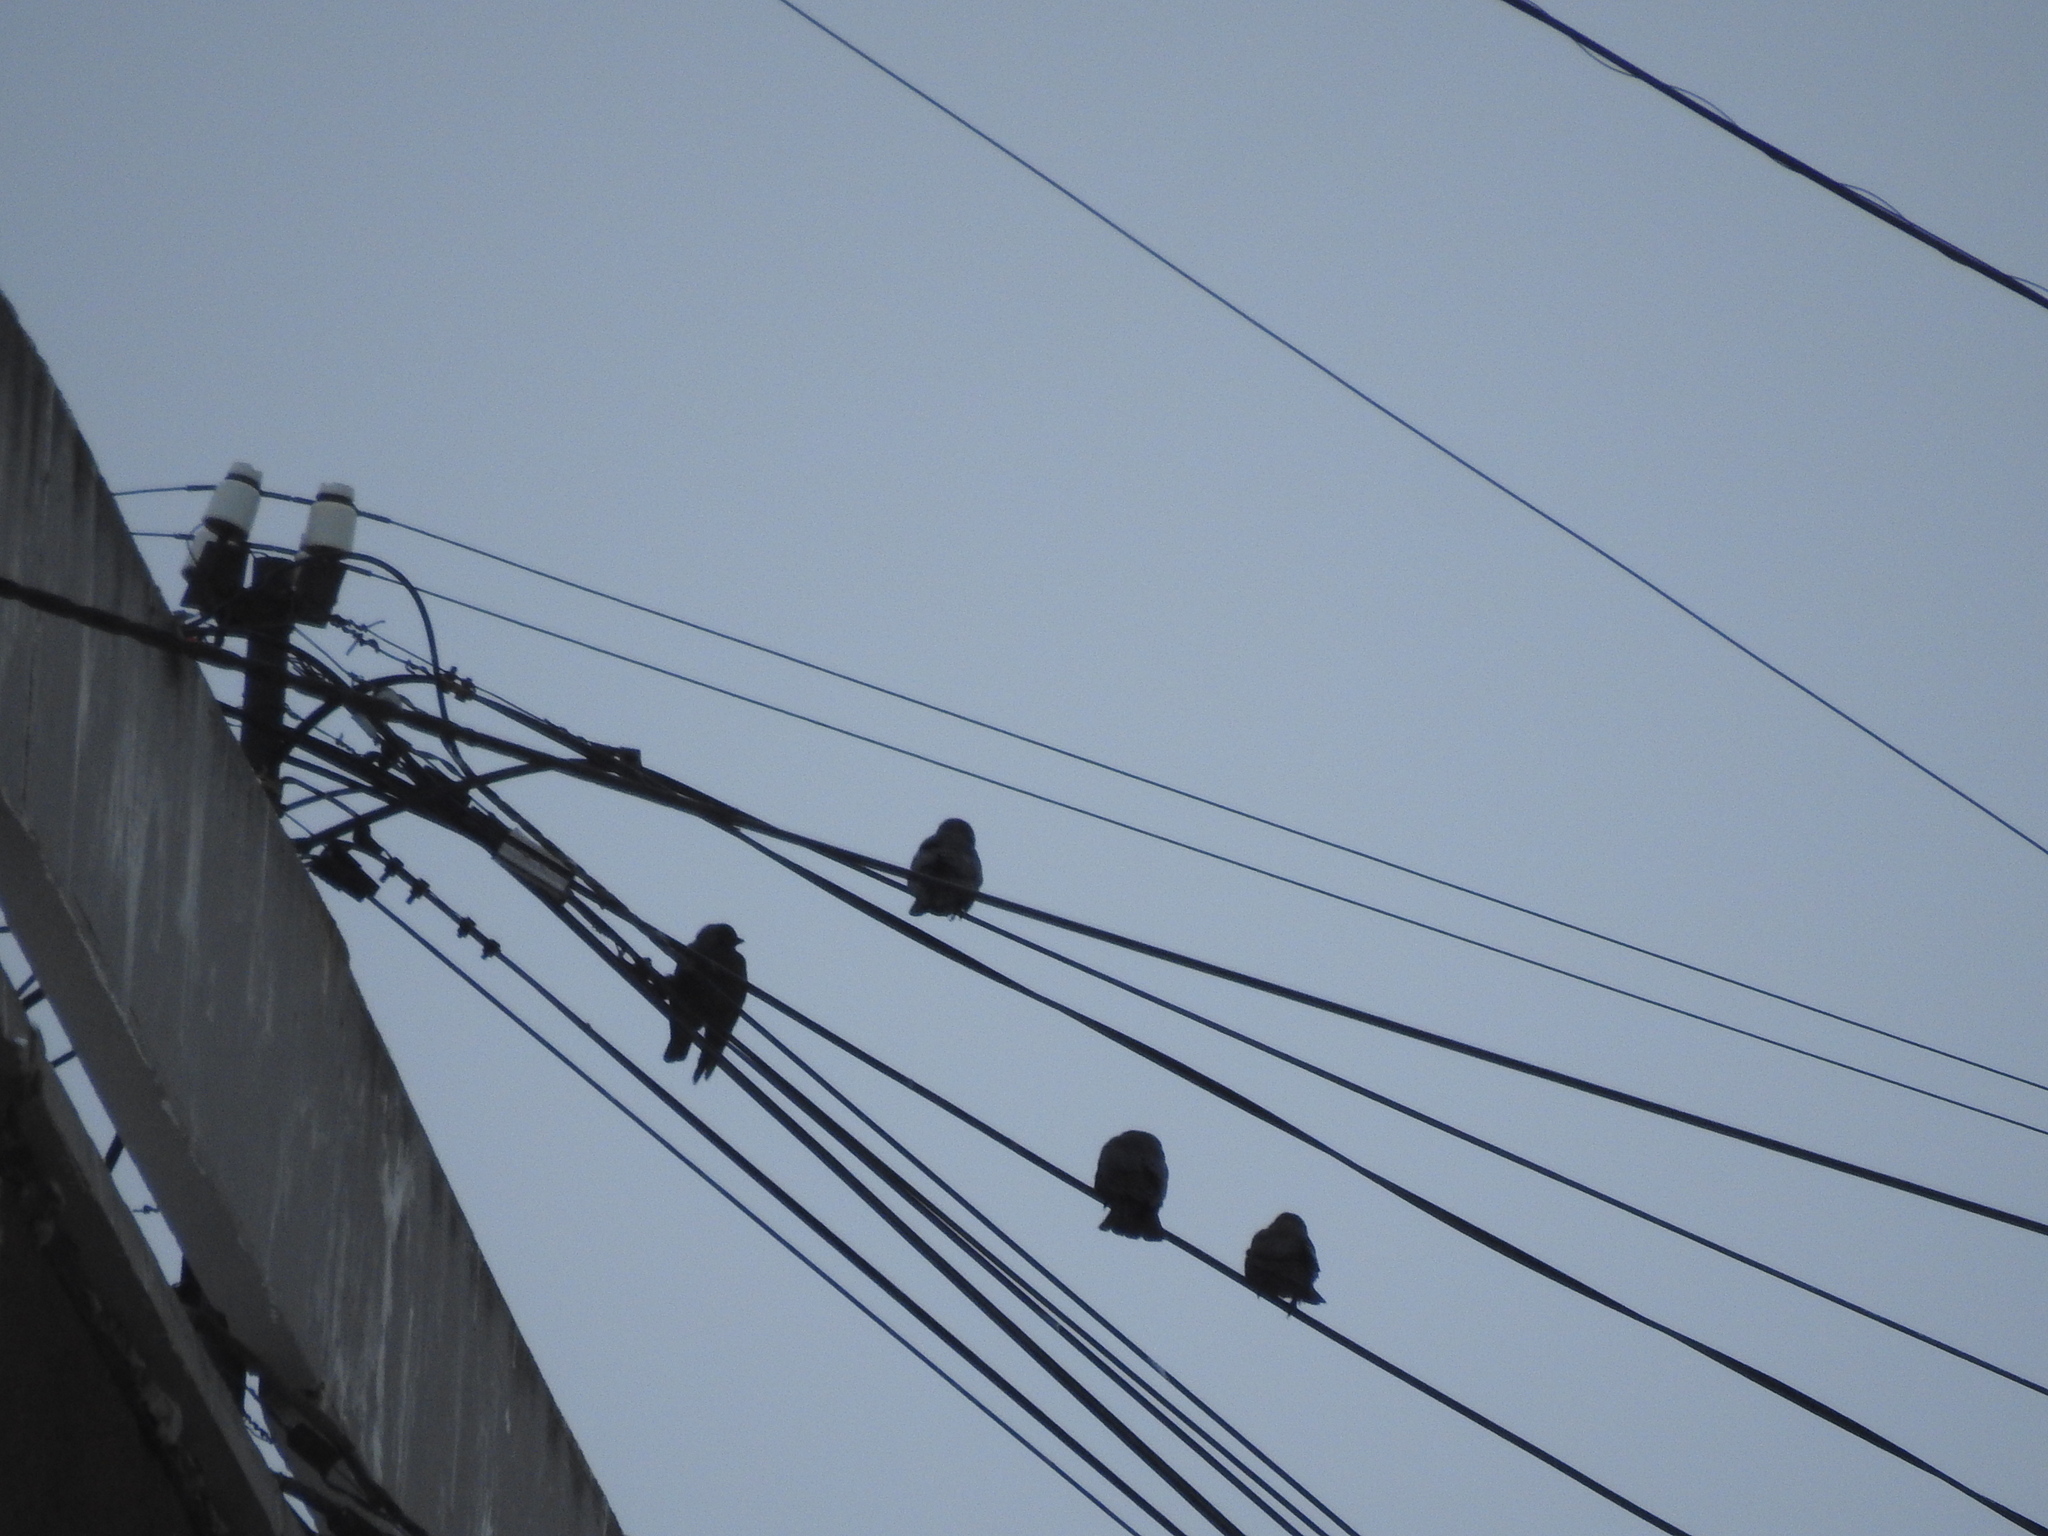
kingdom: Animalia
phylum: Chordata
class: Aves
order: Passeriformes
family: Corvidae
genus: Coloeus
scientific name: Coloeus monedula
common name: Western jackdaw
